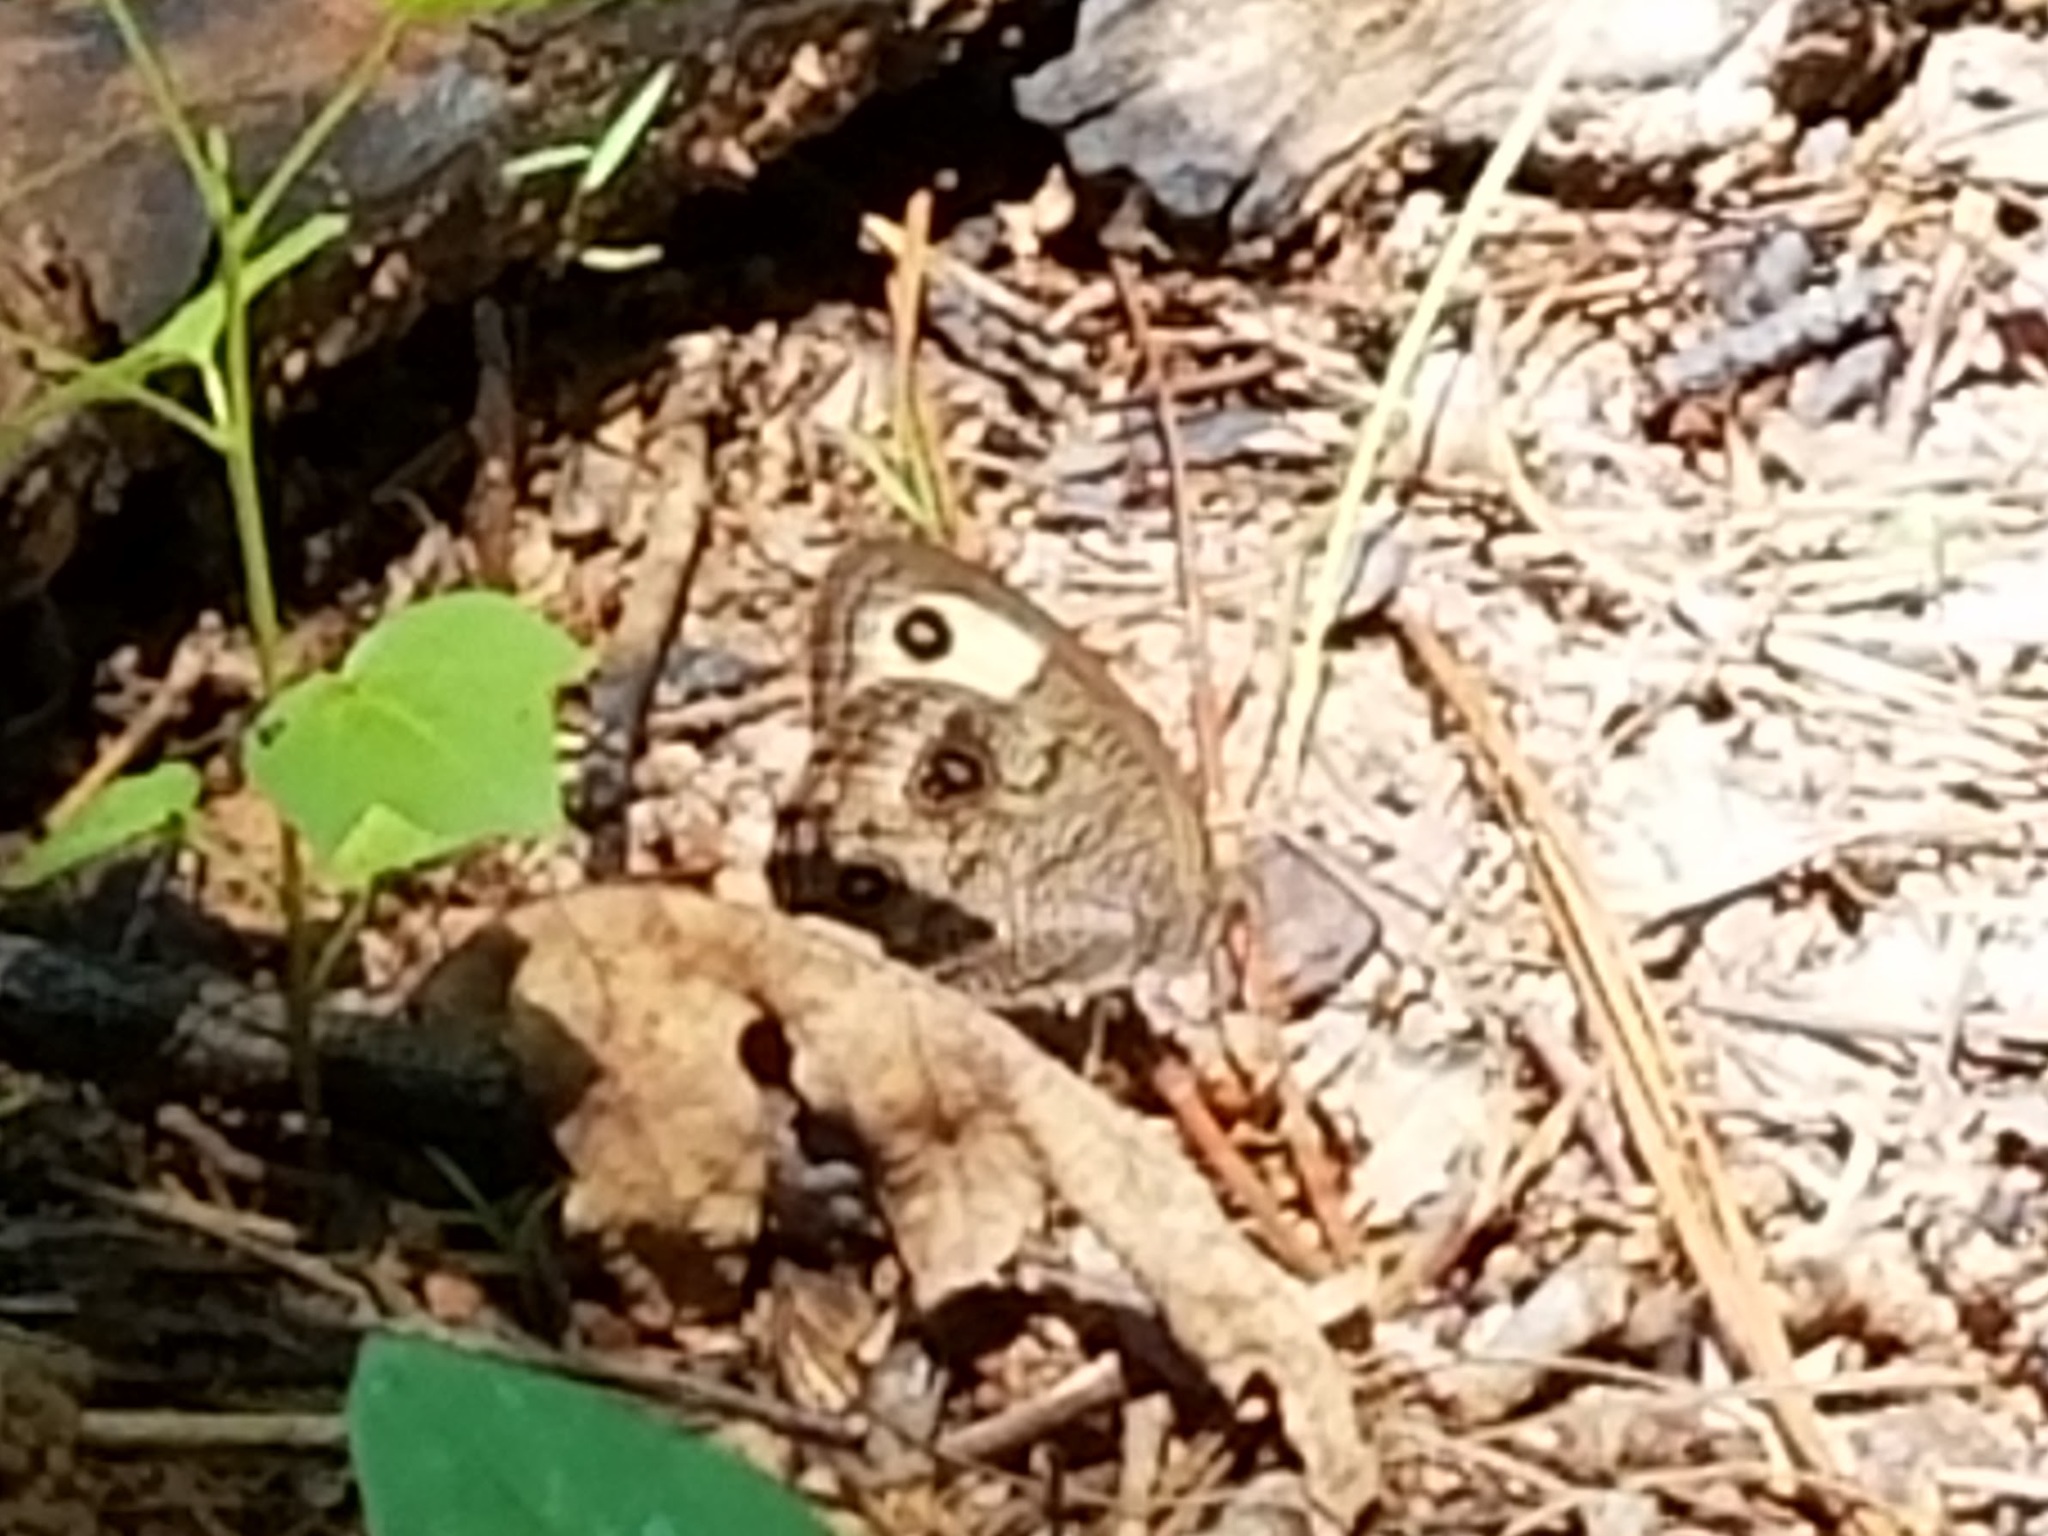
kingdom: Animalia
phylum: Arthropoda
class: Insecta
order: Lepidoptera
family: Nymphalidae
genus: Cercyonis
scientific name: Cercyonis pegala
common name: Common wood-nymph
